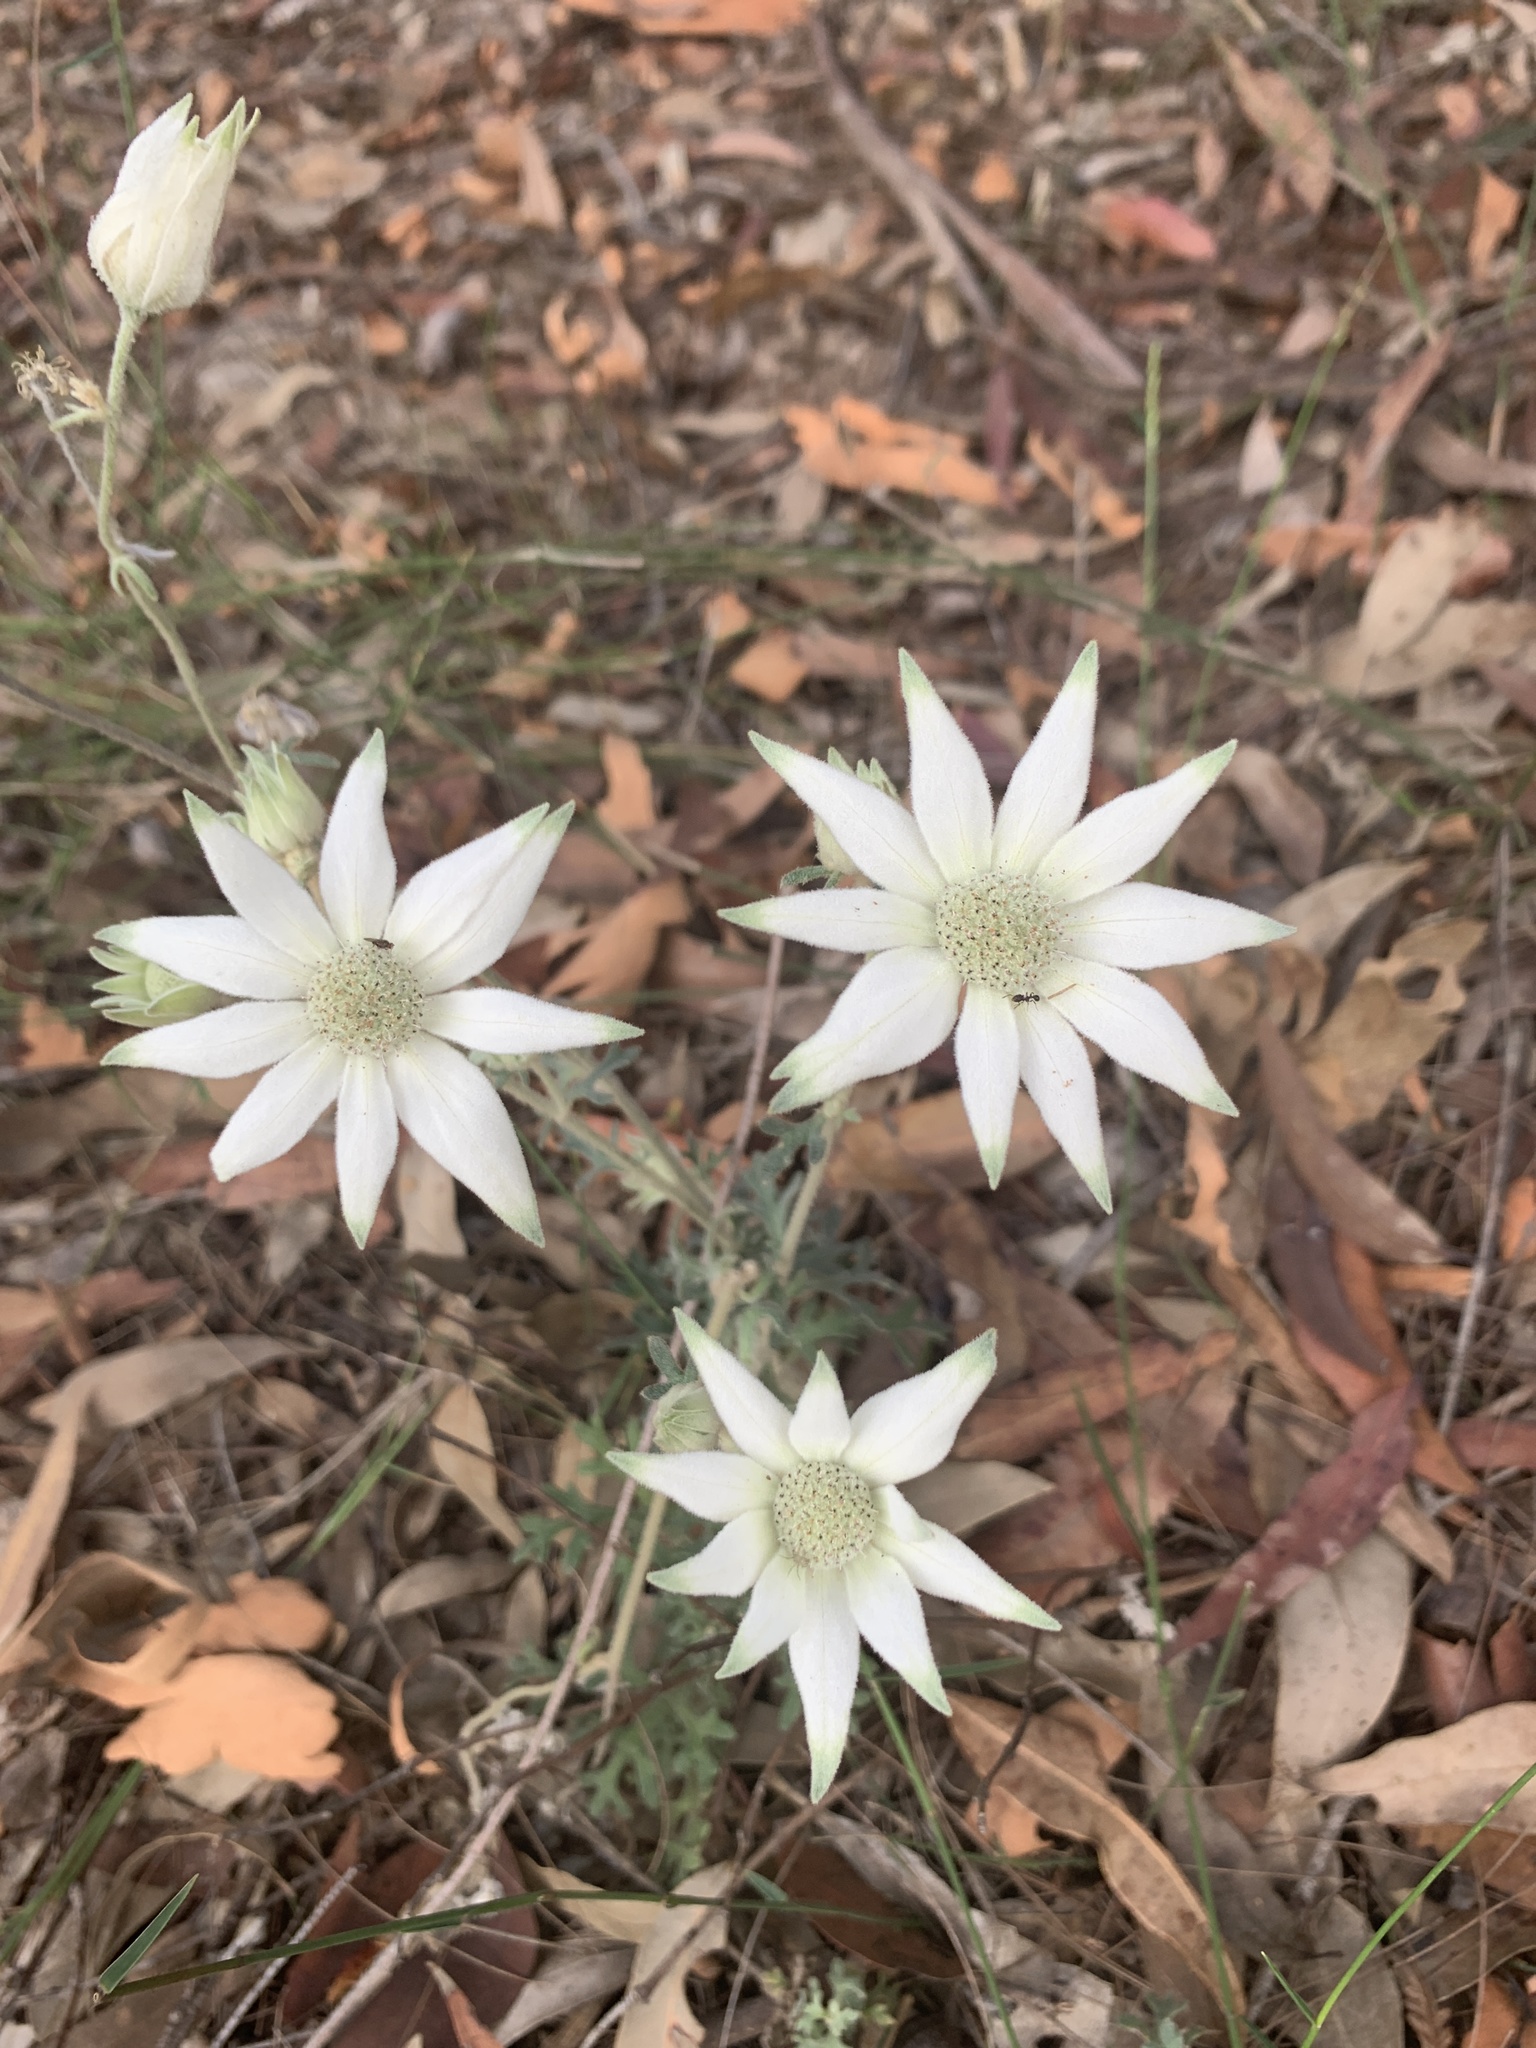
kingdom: Plantae
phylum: Tracheophyta
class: Magnoliopsida
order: Apiales
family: Apiaceae
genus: Actinotus
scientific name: Actinotus helianthi
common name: Flannel-flower
